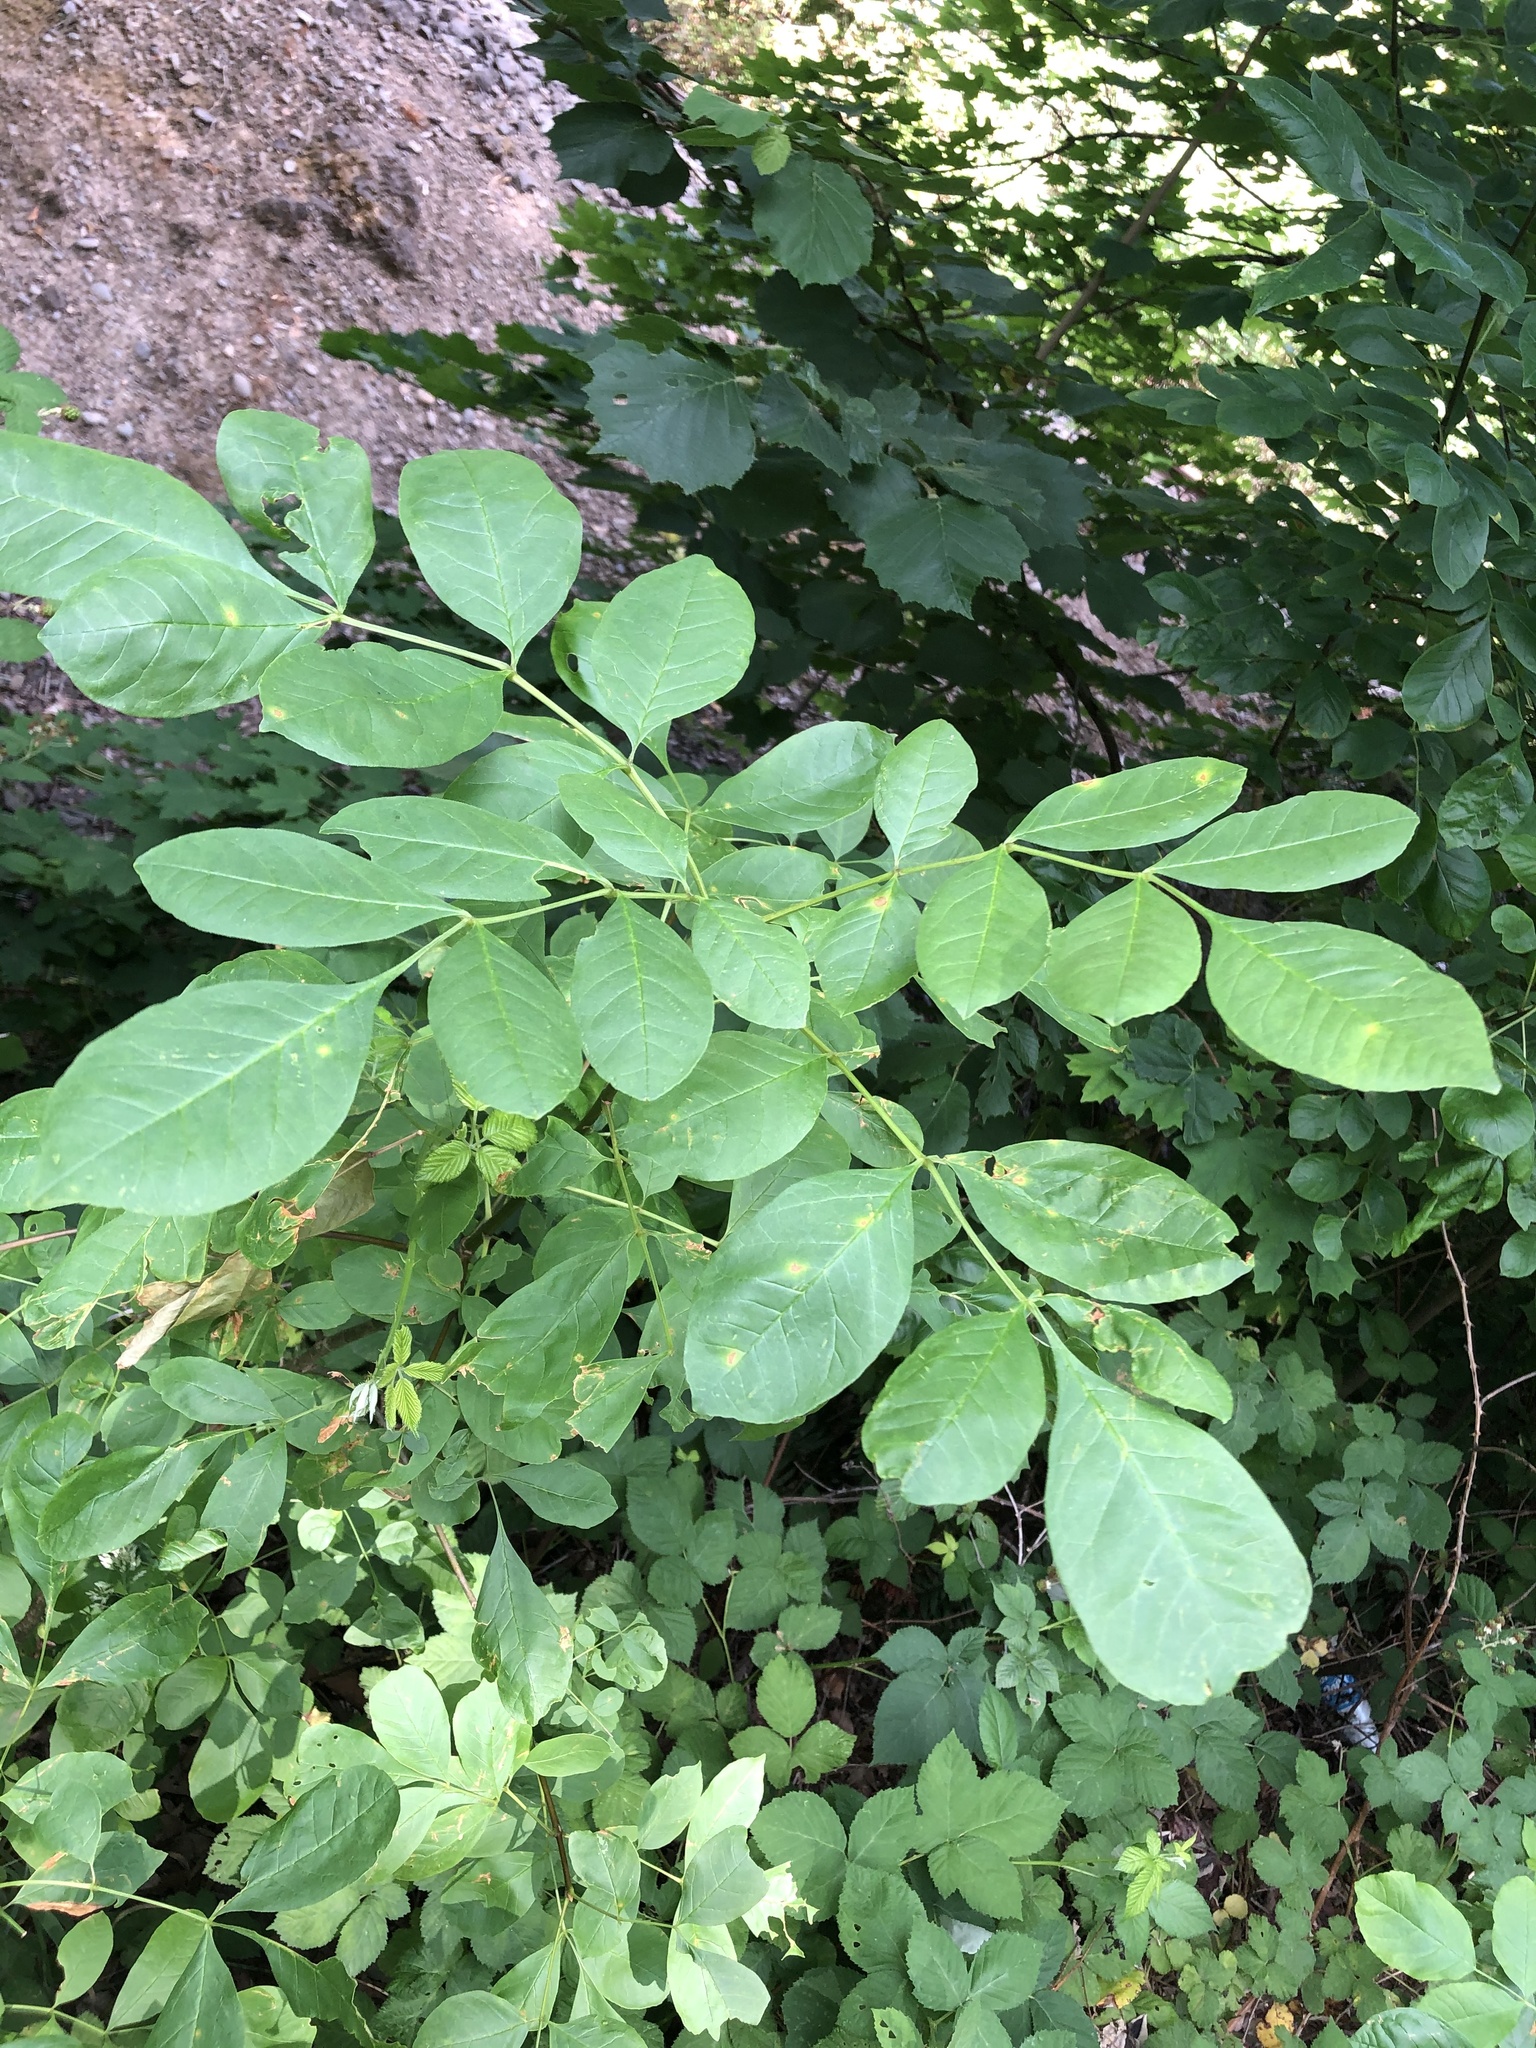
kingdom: Plantae
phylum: Tracheophyta
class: Magnoliopsida
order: Lamiales
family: Oleaceae
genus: Fraxinus
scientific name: Fraxinus latifolia
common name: Oregon ash
